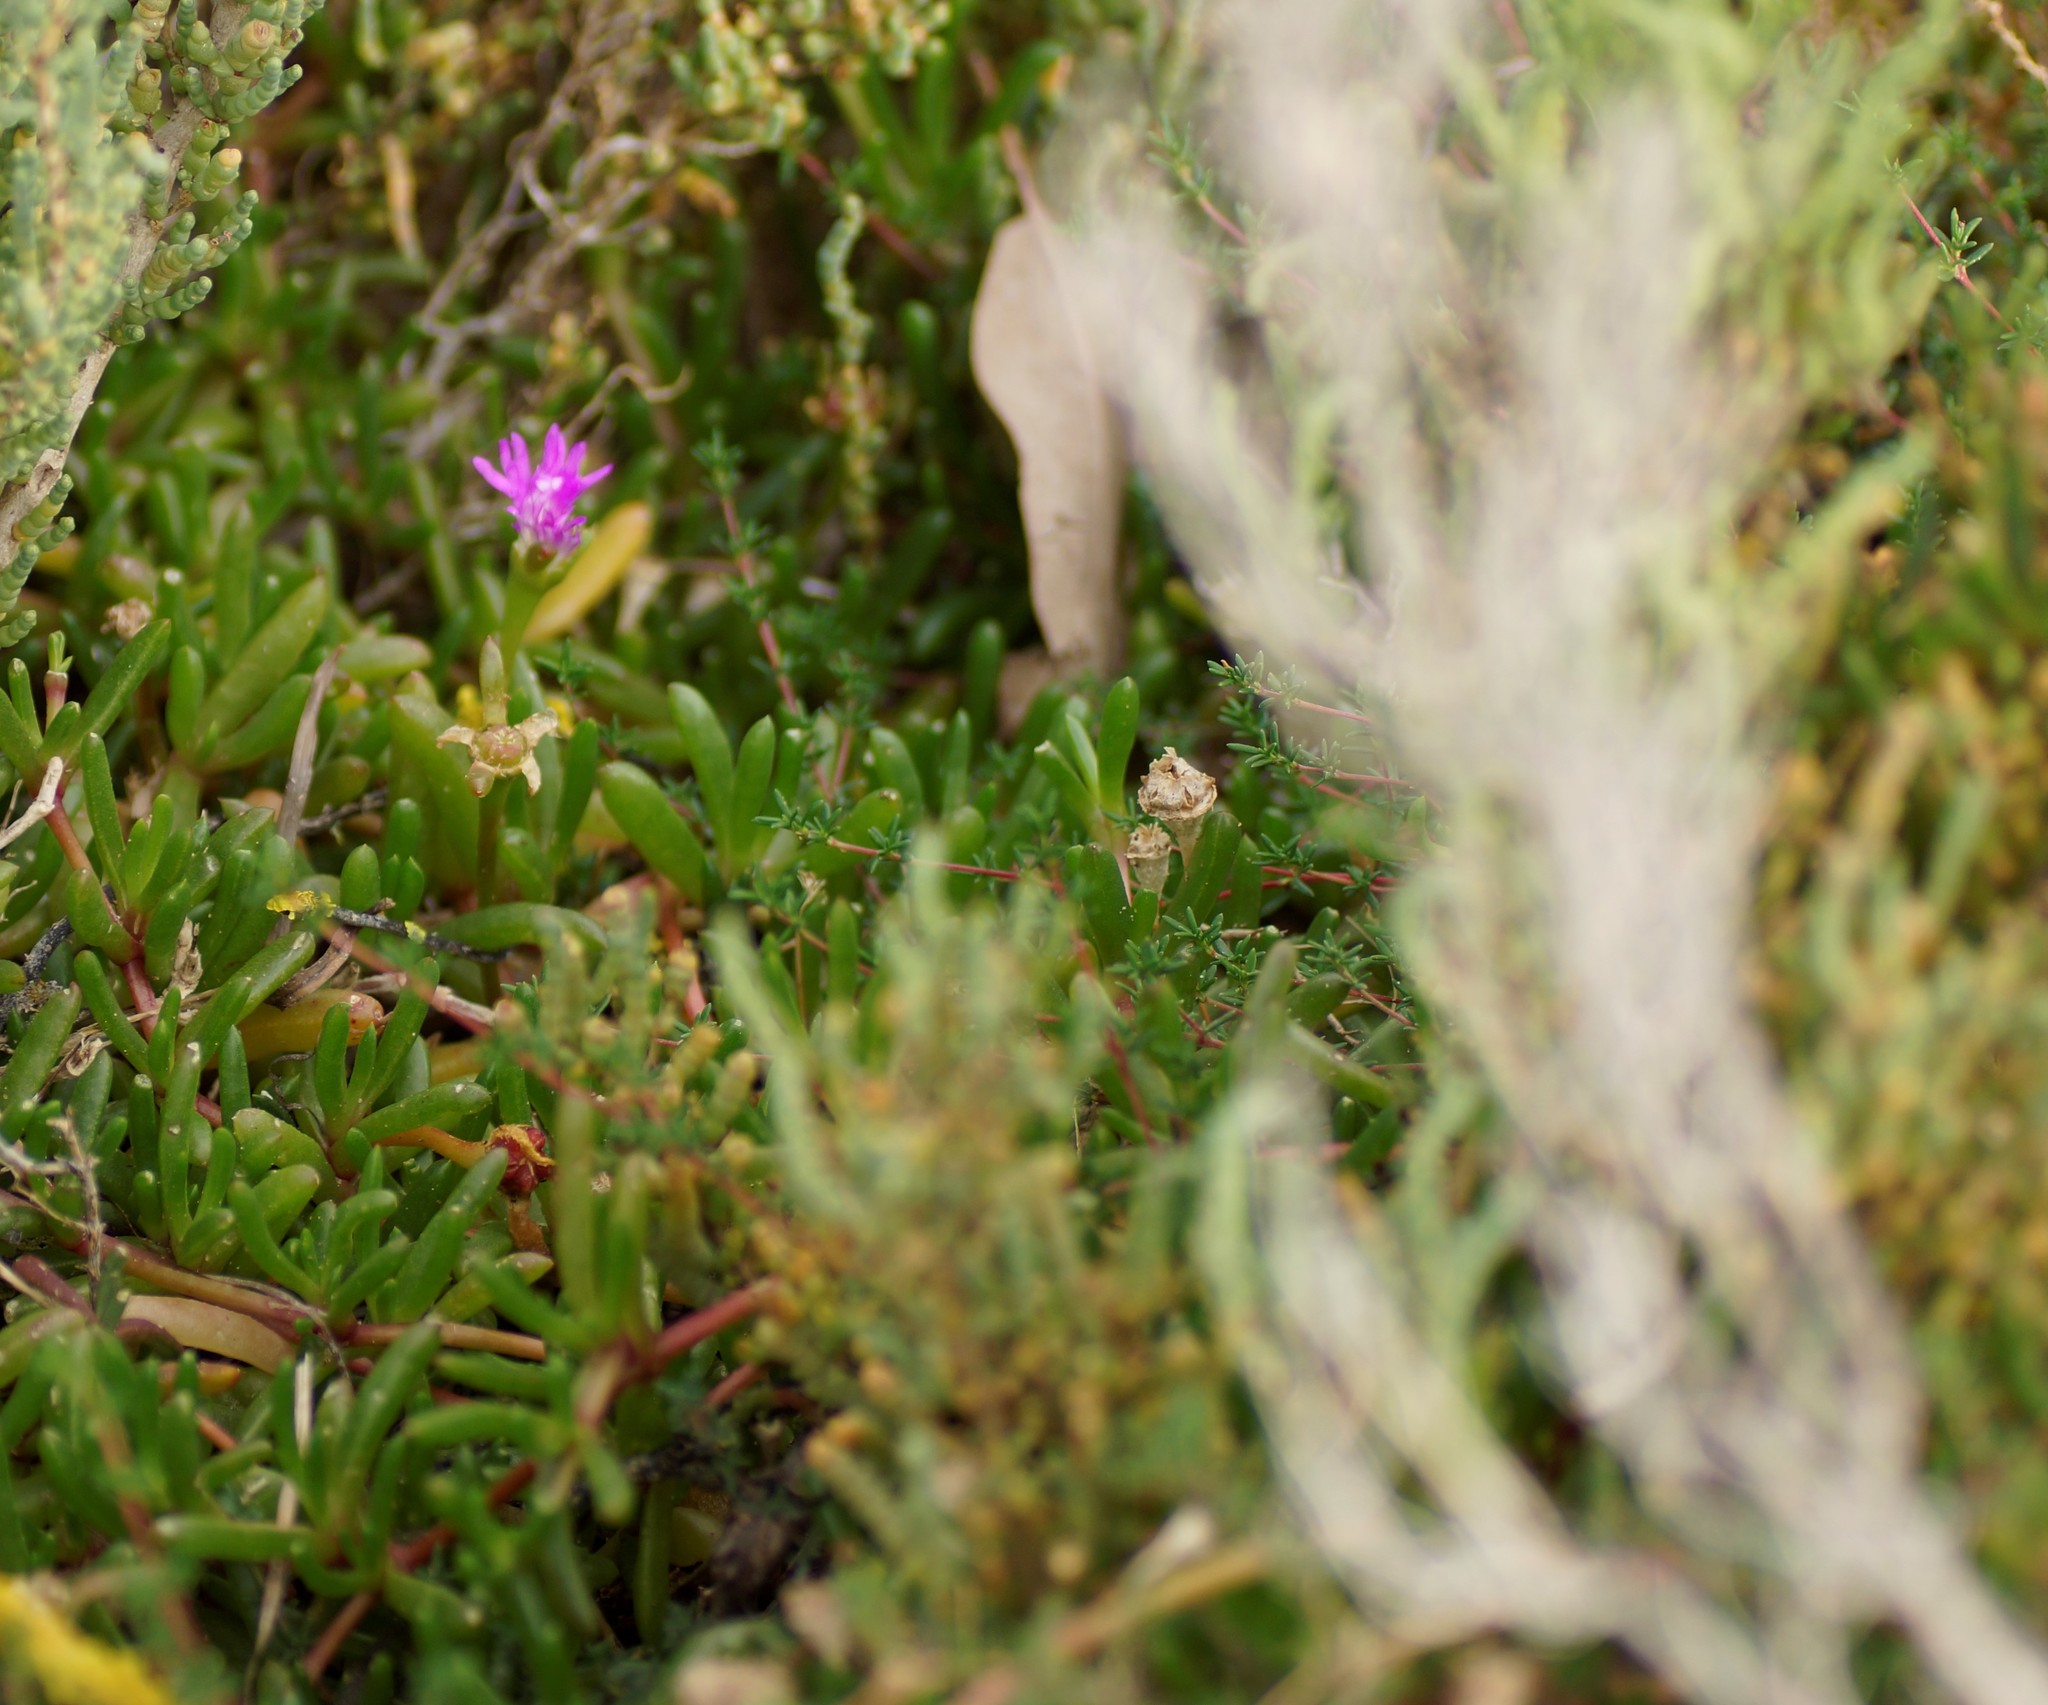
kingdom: Plantae
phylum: Tracheophyta
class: Magnoliopsida
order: Caryophyllales
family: Aizoaceae
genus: Disphyma
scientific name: Disphyma crassifolium
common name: Purple dewplant
